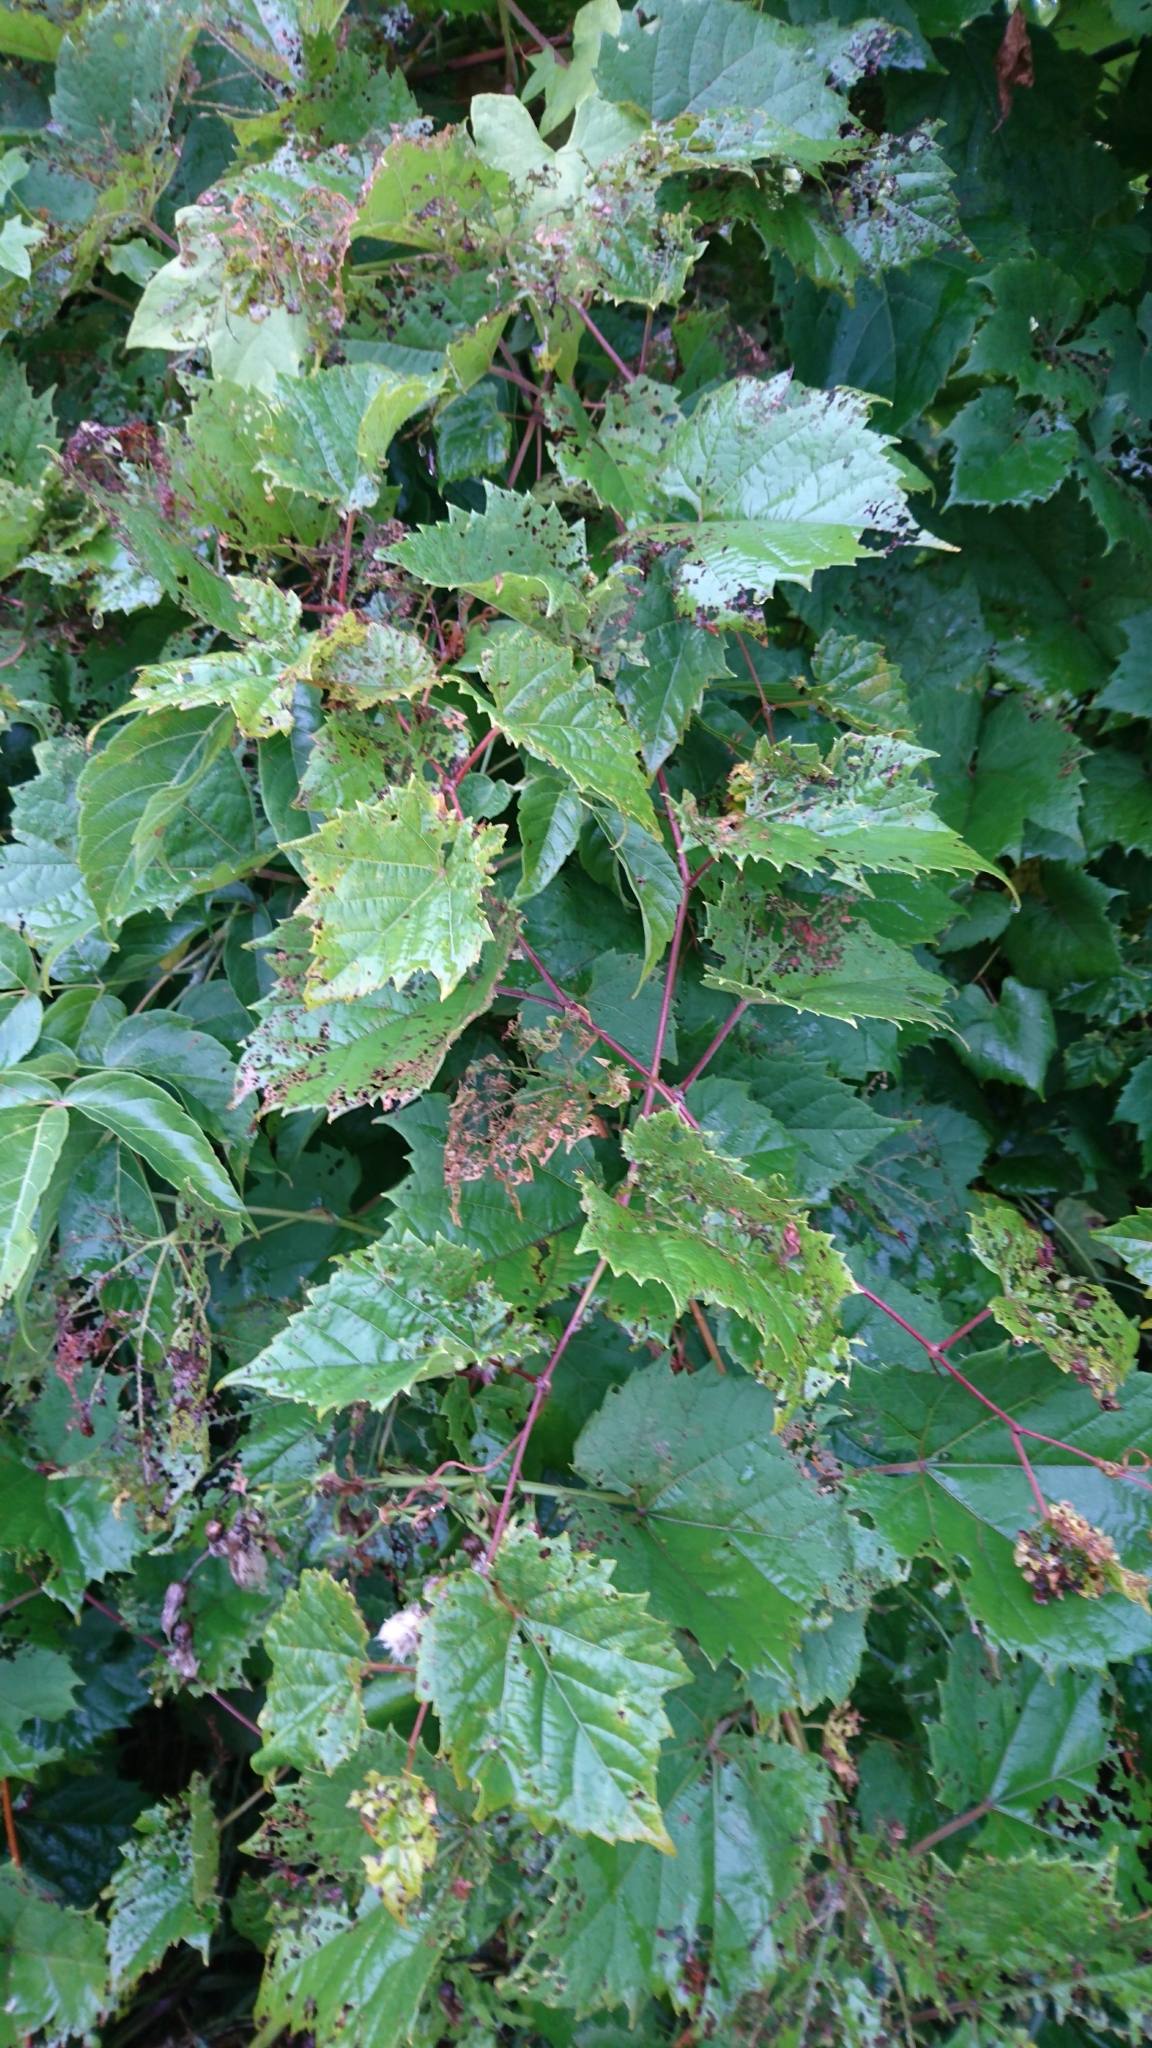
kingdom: Plantae
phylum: Tracheophyta
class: Magnoliopsida
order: Vitales
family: Vitaceae
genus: Vitis
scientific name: Vitis riparia
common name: Frost grape
